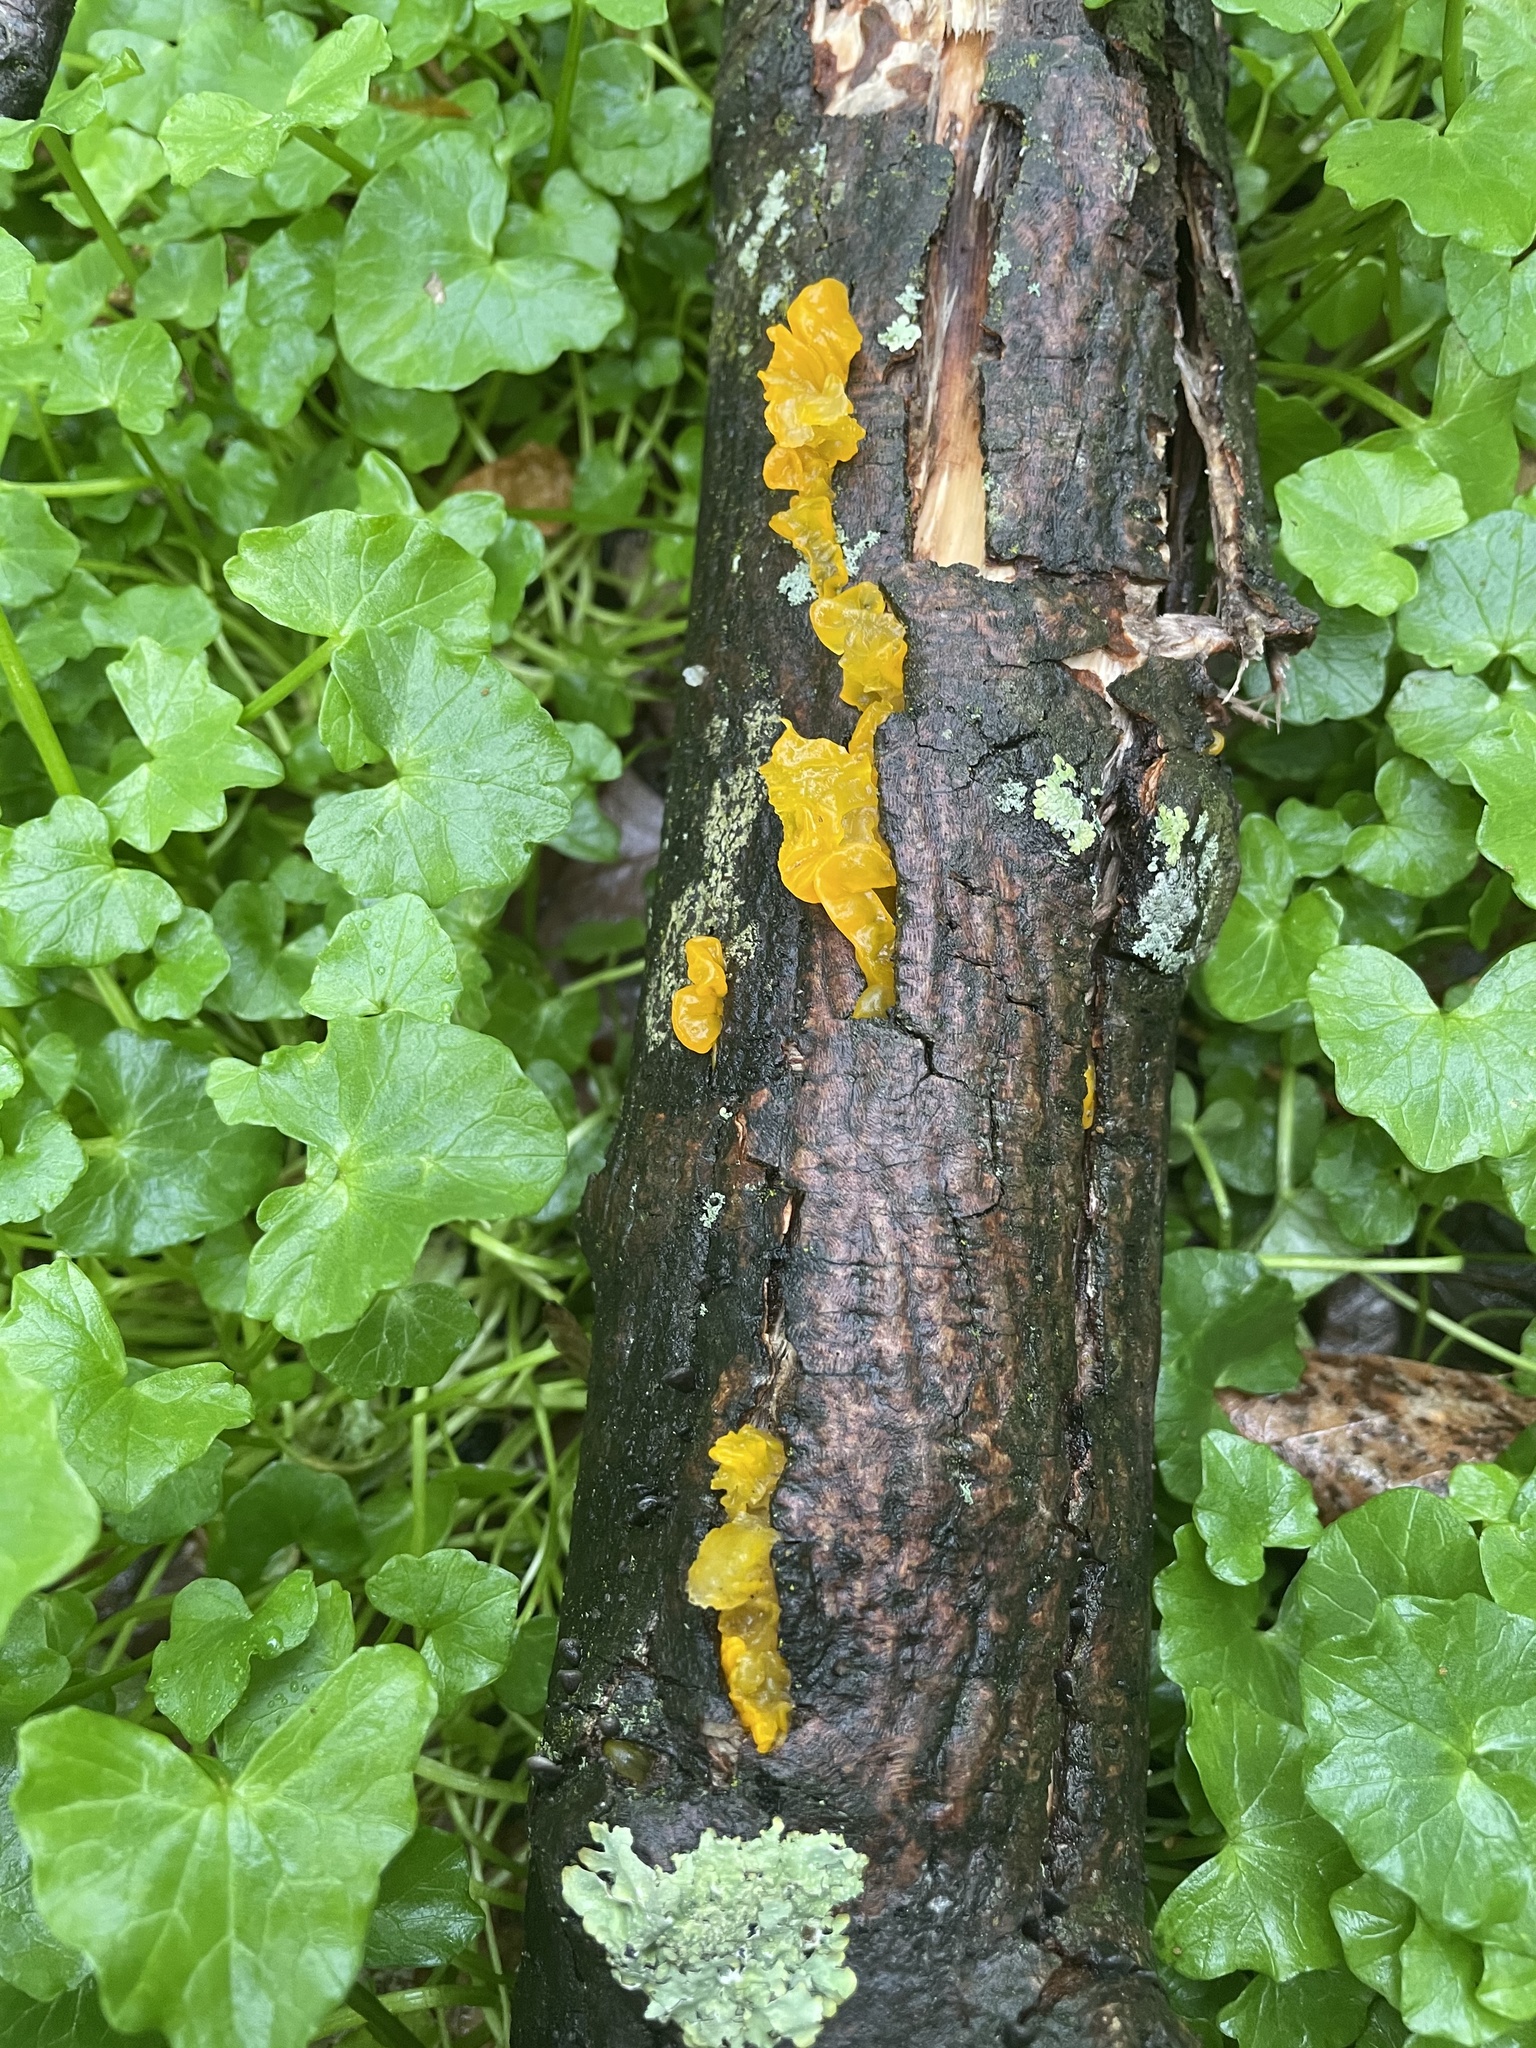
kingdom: Fungi
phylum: Basidiomycota
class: Tremellomycetes
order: Tremellales
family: Tremellaceae
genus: Tremella
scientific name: Tremella mesenterica
